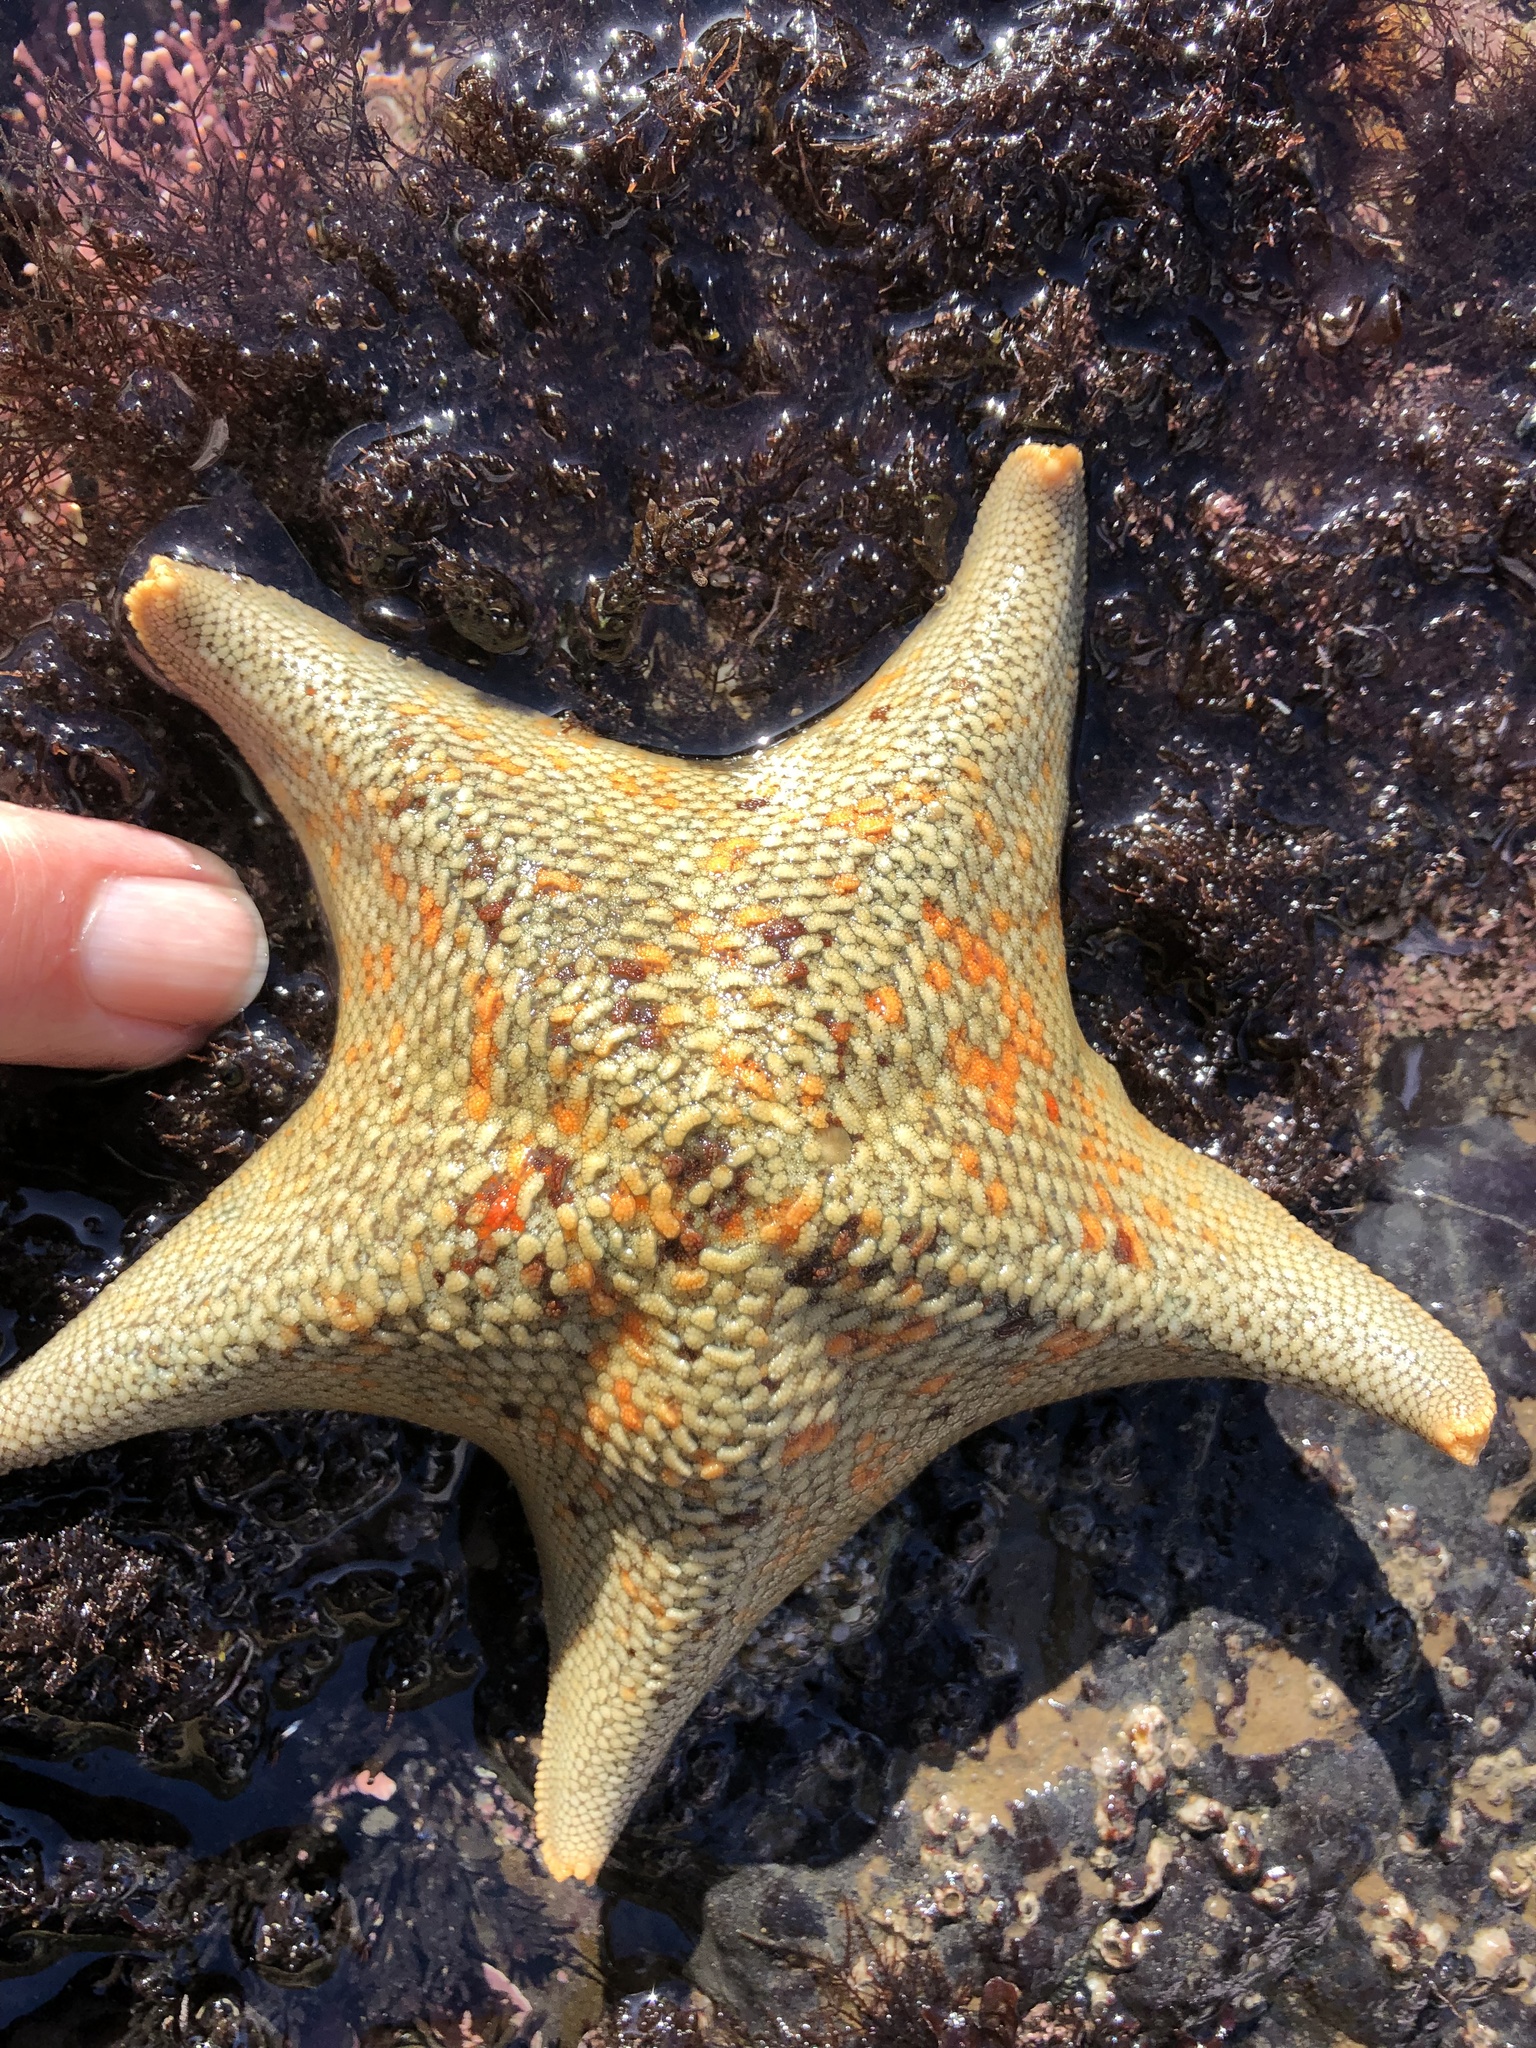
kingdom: Animalia
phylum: Echinodermata
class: Asteroidea
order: Valvatida
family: Asterinidae
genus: Patiria
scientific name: Patiria miniata
